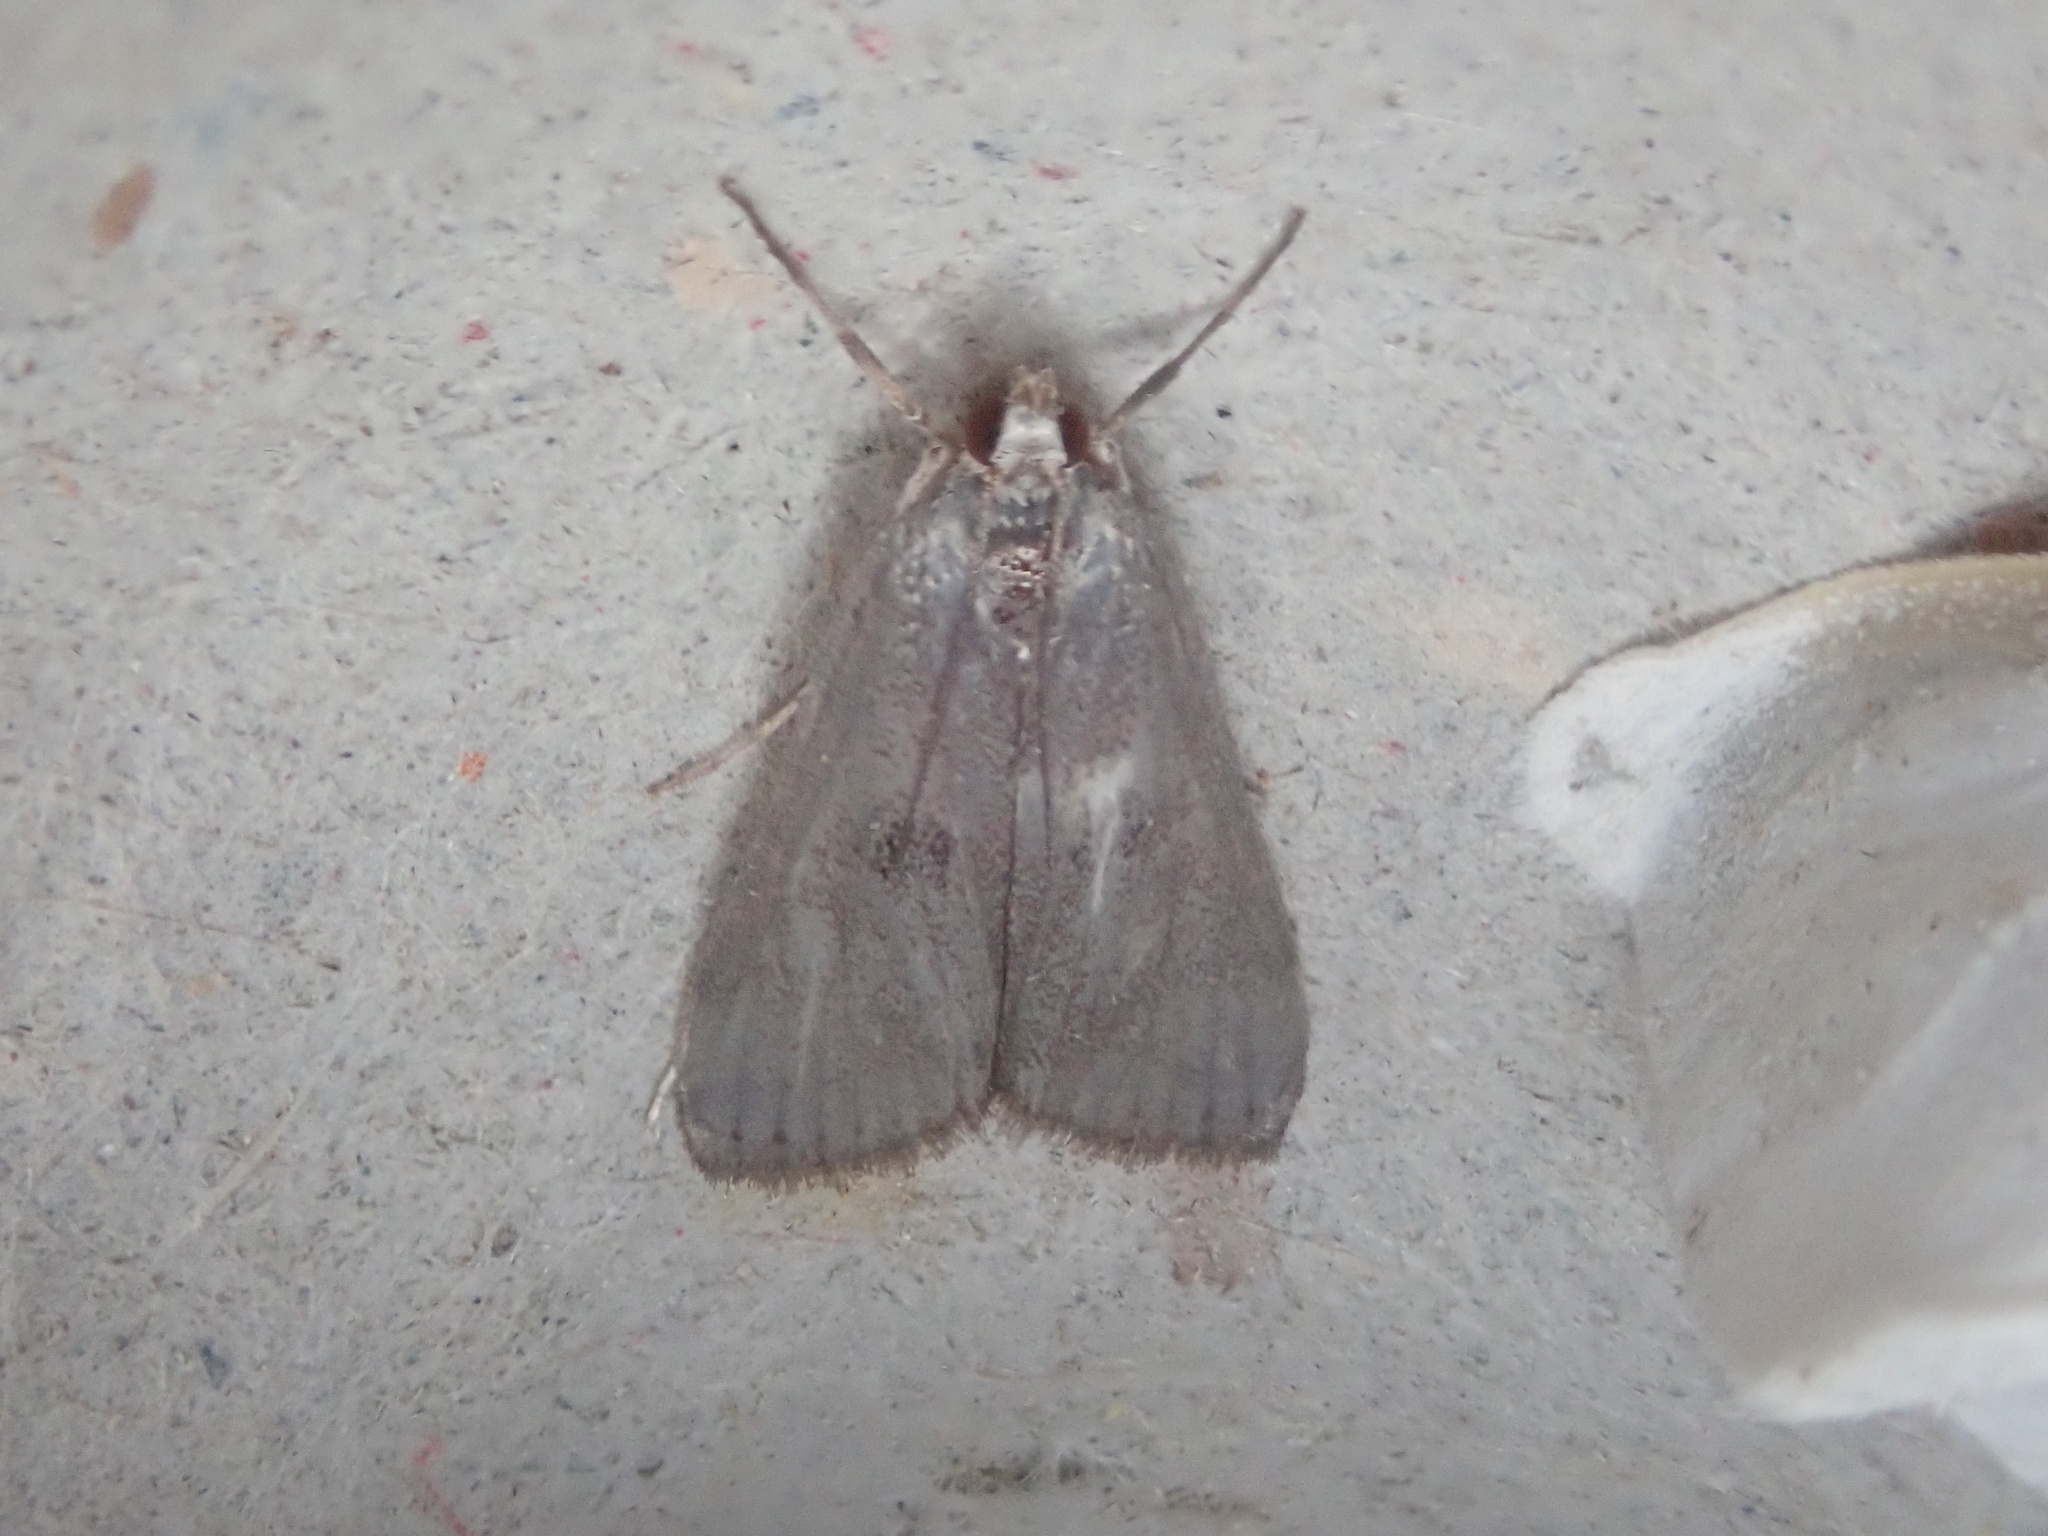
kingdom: Animalia
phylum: Arthropoda
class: Insecta
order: Lepidoptera
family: Crambidae
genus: Parapoynx
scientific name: Parapoynx maculalis
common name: Polymorphic pondweed moth
